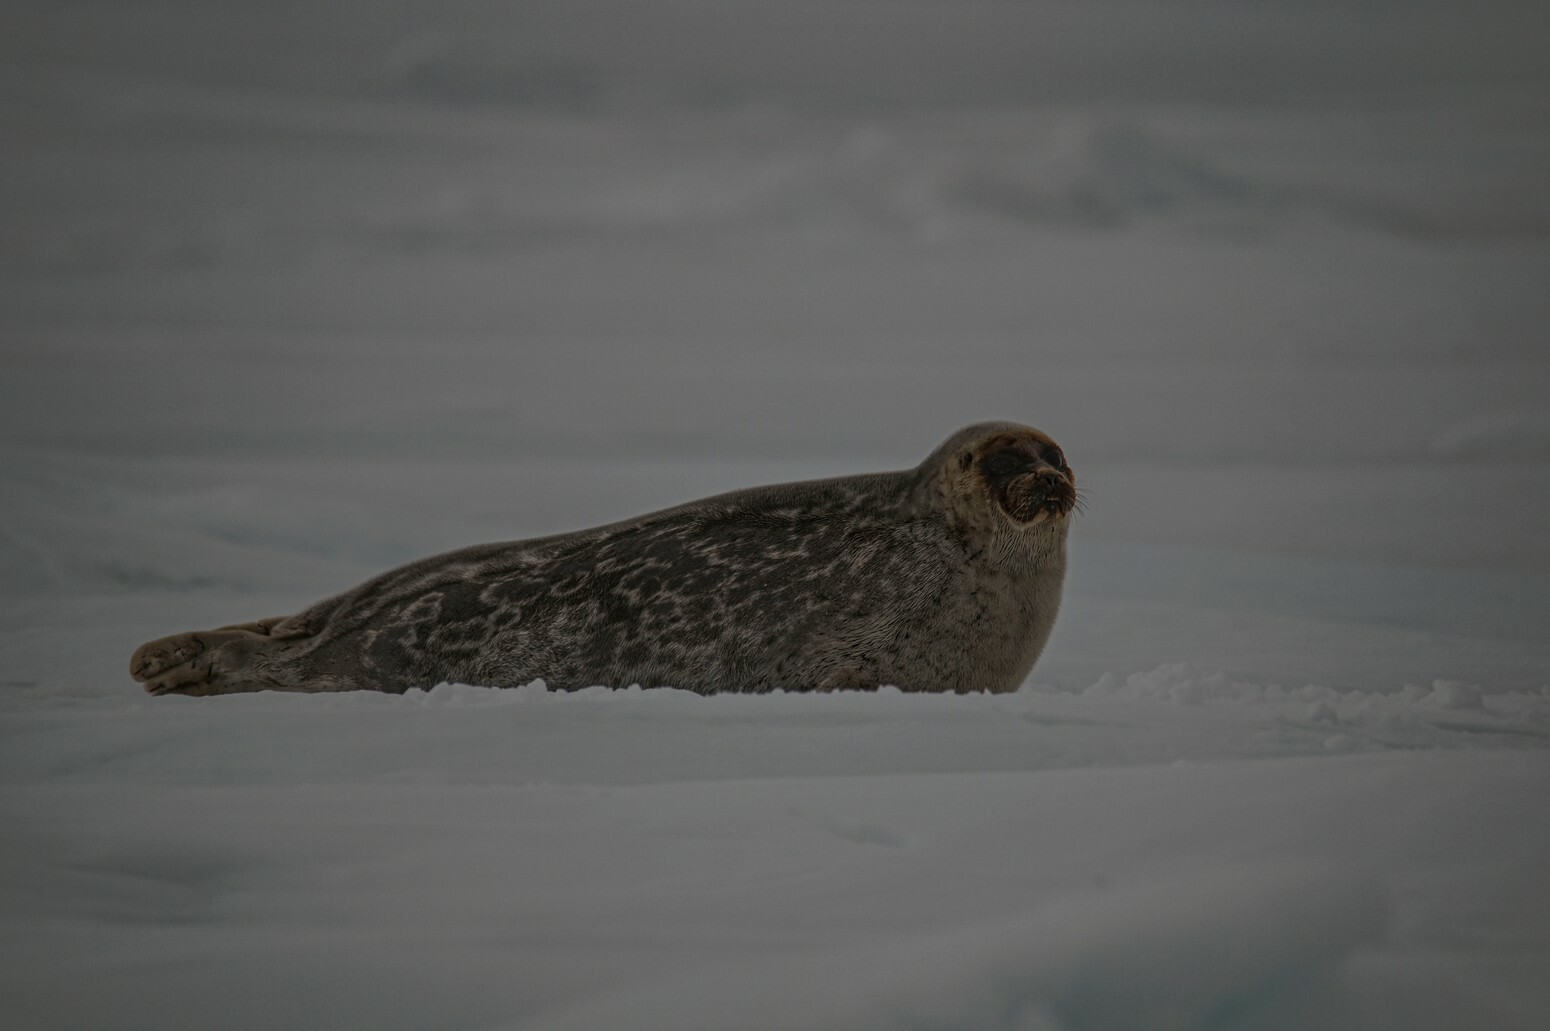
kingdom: Animalia
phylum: Chordata
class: Mammalia
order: Carnivora
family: Phocidae
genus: Pusa
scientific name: Pusa hispida
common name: Ringed seal
